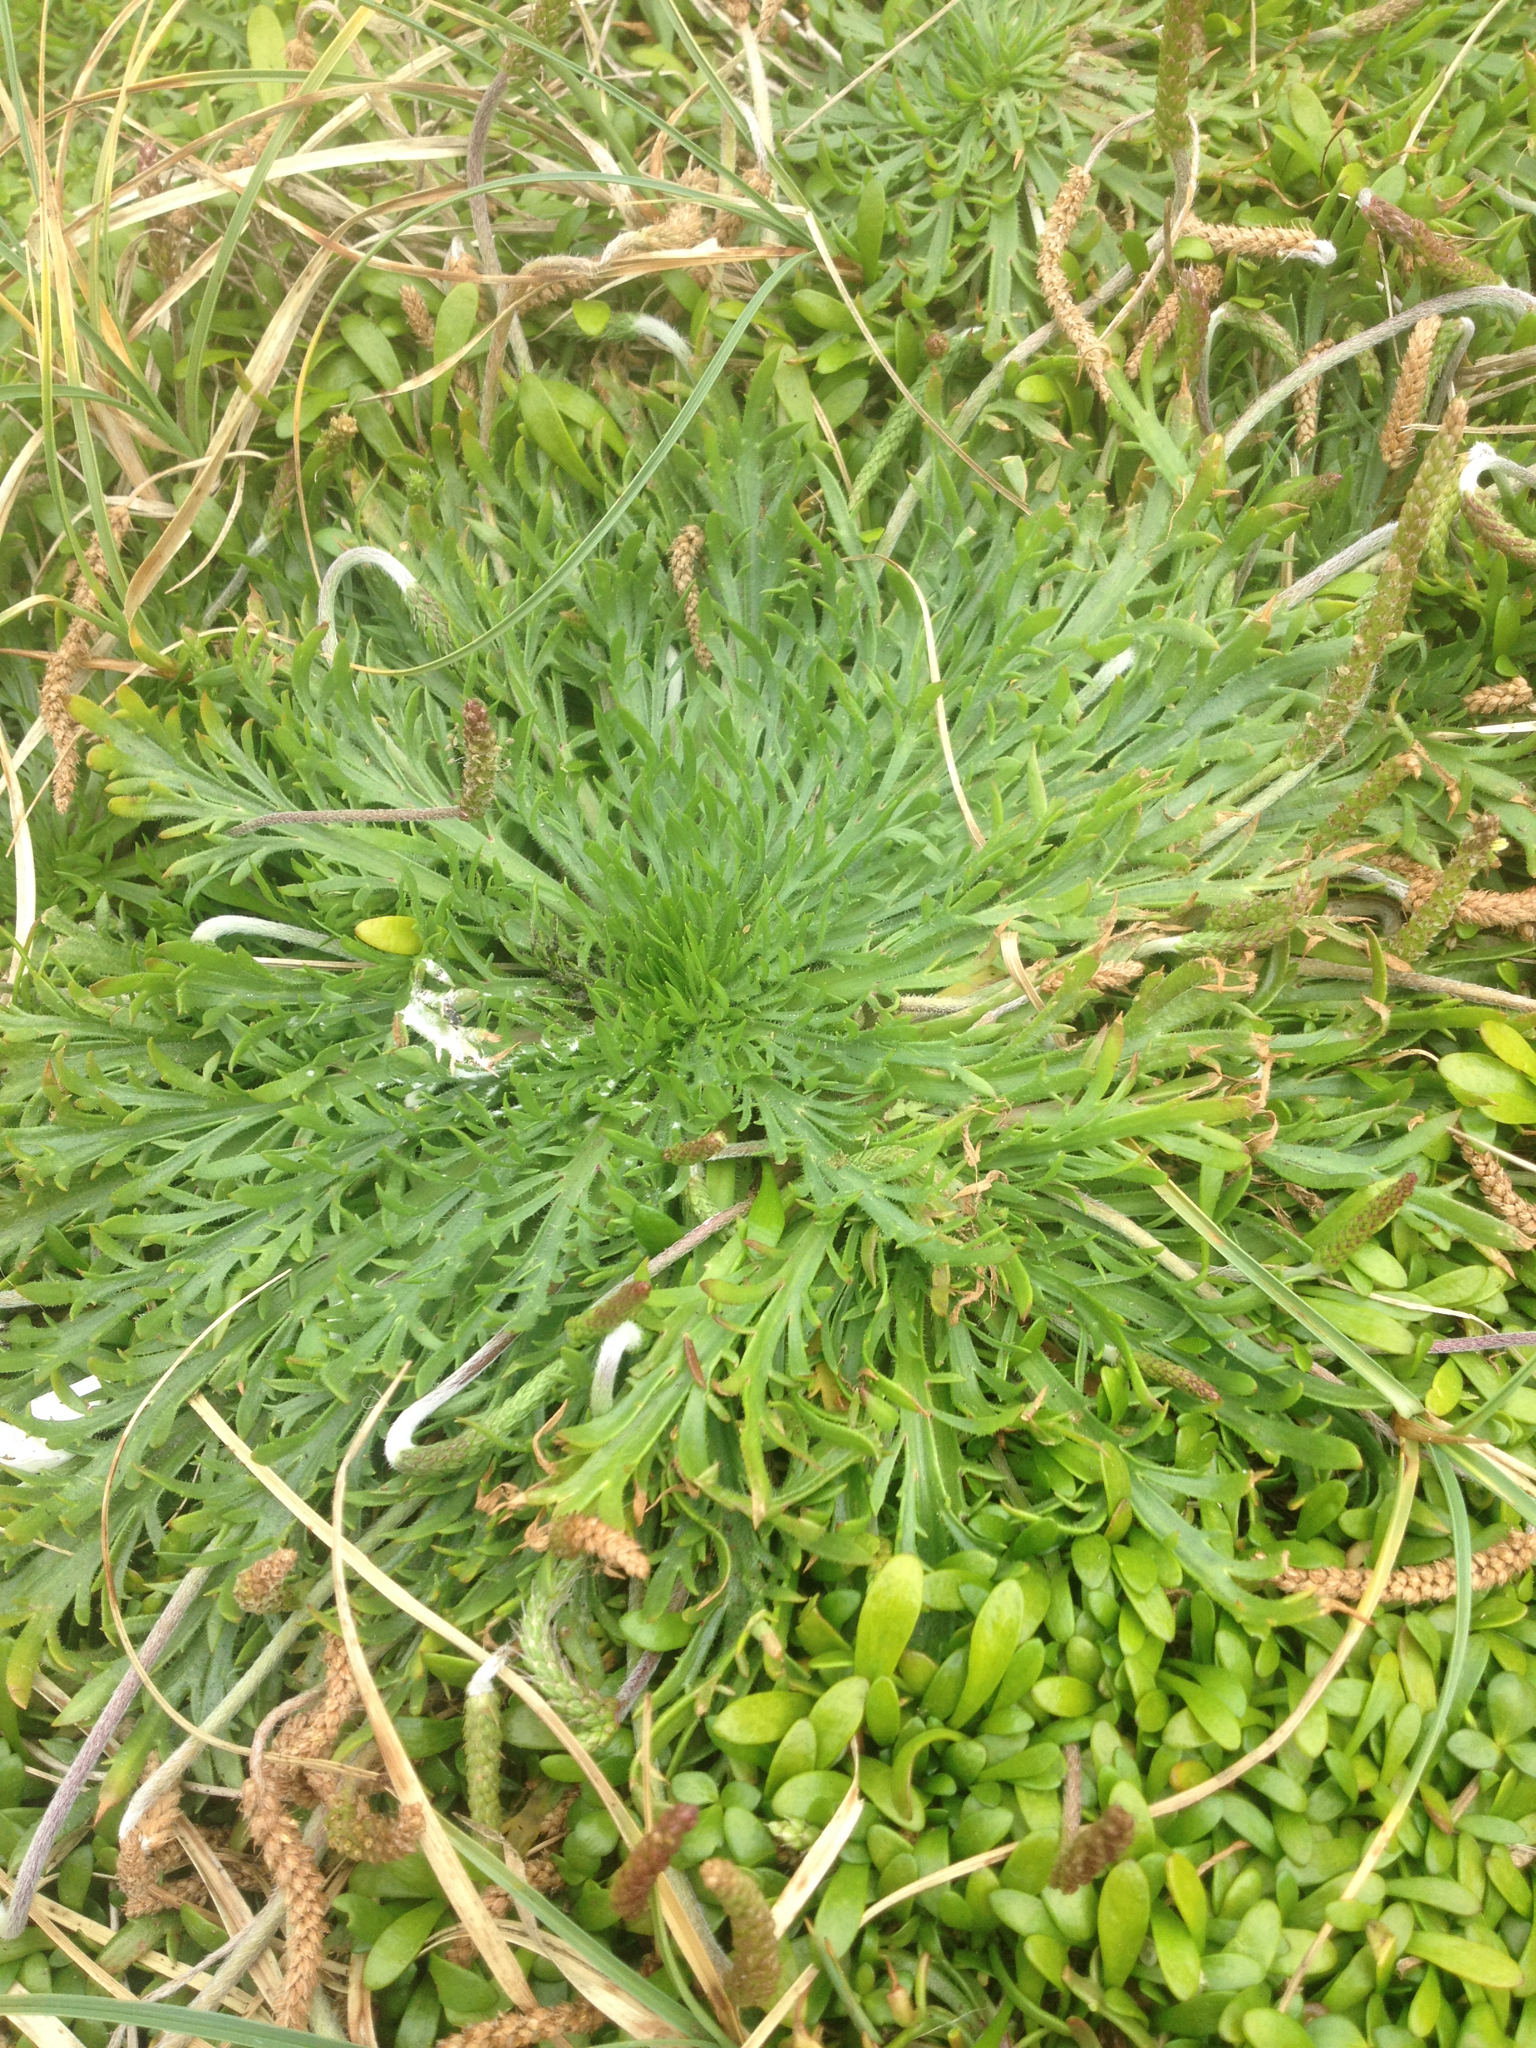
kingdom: Plantae
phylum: Tracheophyta
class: Magnoliopsida
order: Lamiales
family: Plantaginaceae
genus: Plantago
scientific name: Plantago coronopus
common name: Buck's-horn plantain
